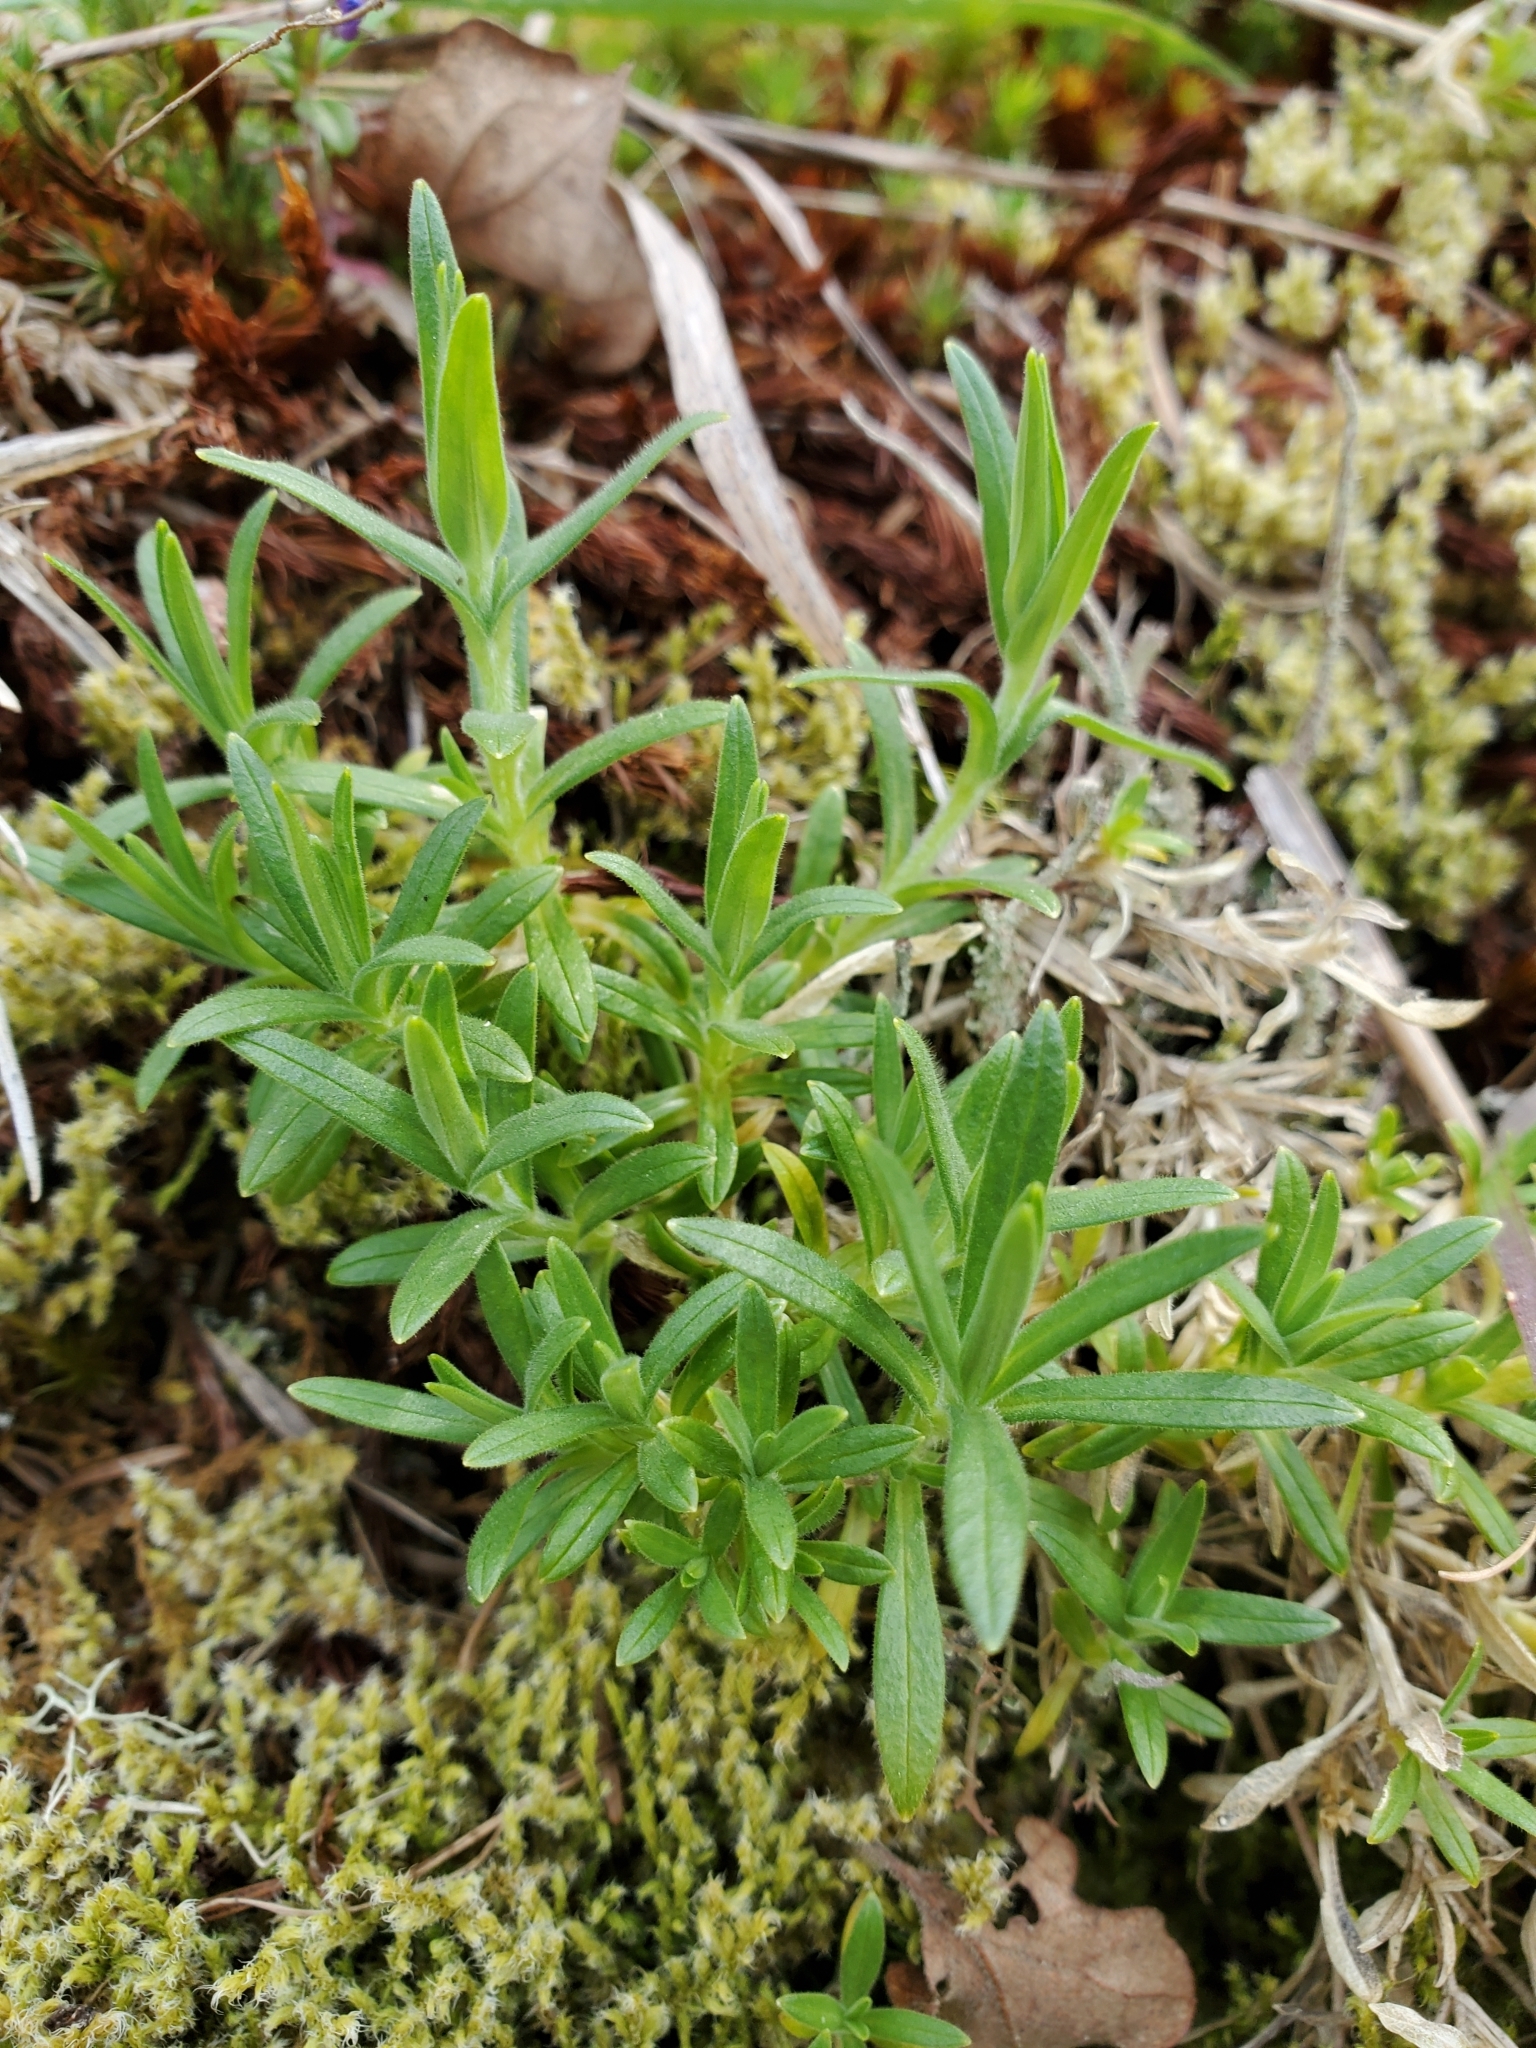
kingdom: Plantae
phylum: Tracheophyta
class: Magnoliopsida
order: Caryophyllales
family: Caryophyllaceae
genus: Cerastium
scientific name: Cerastium arvense
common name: Field mouse-ear
